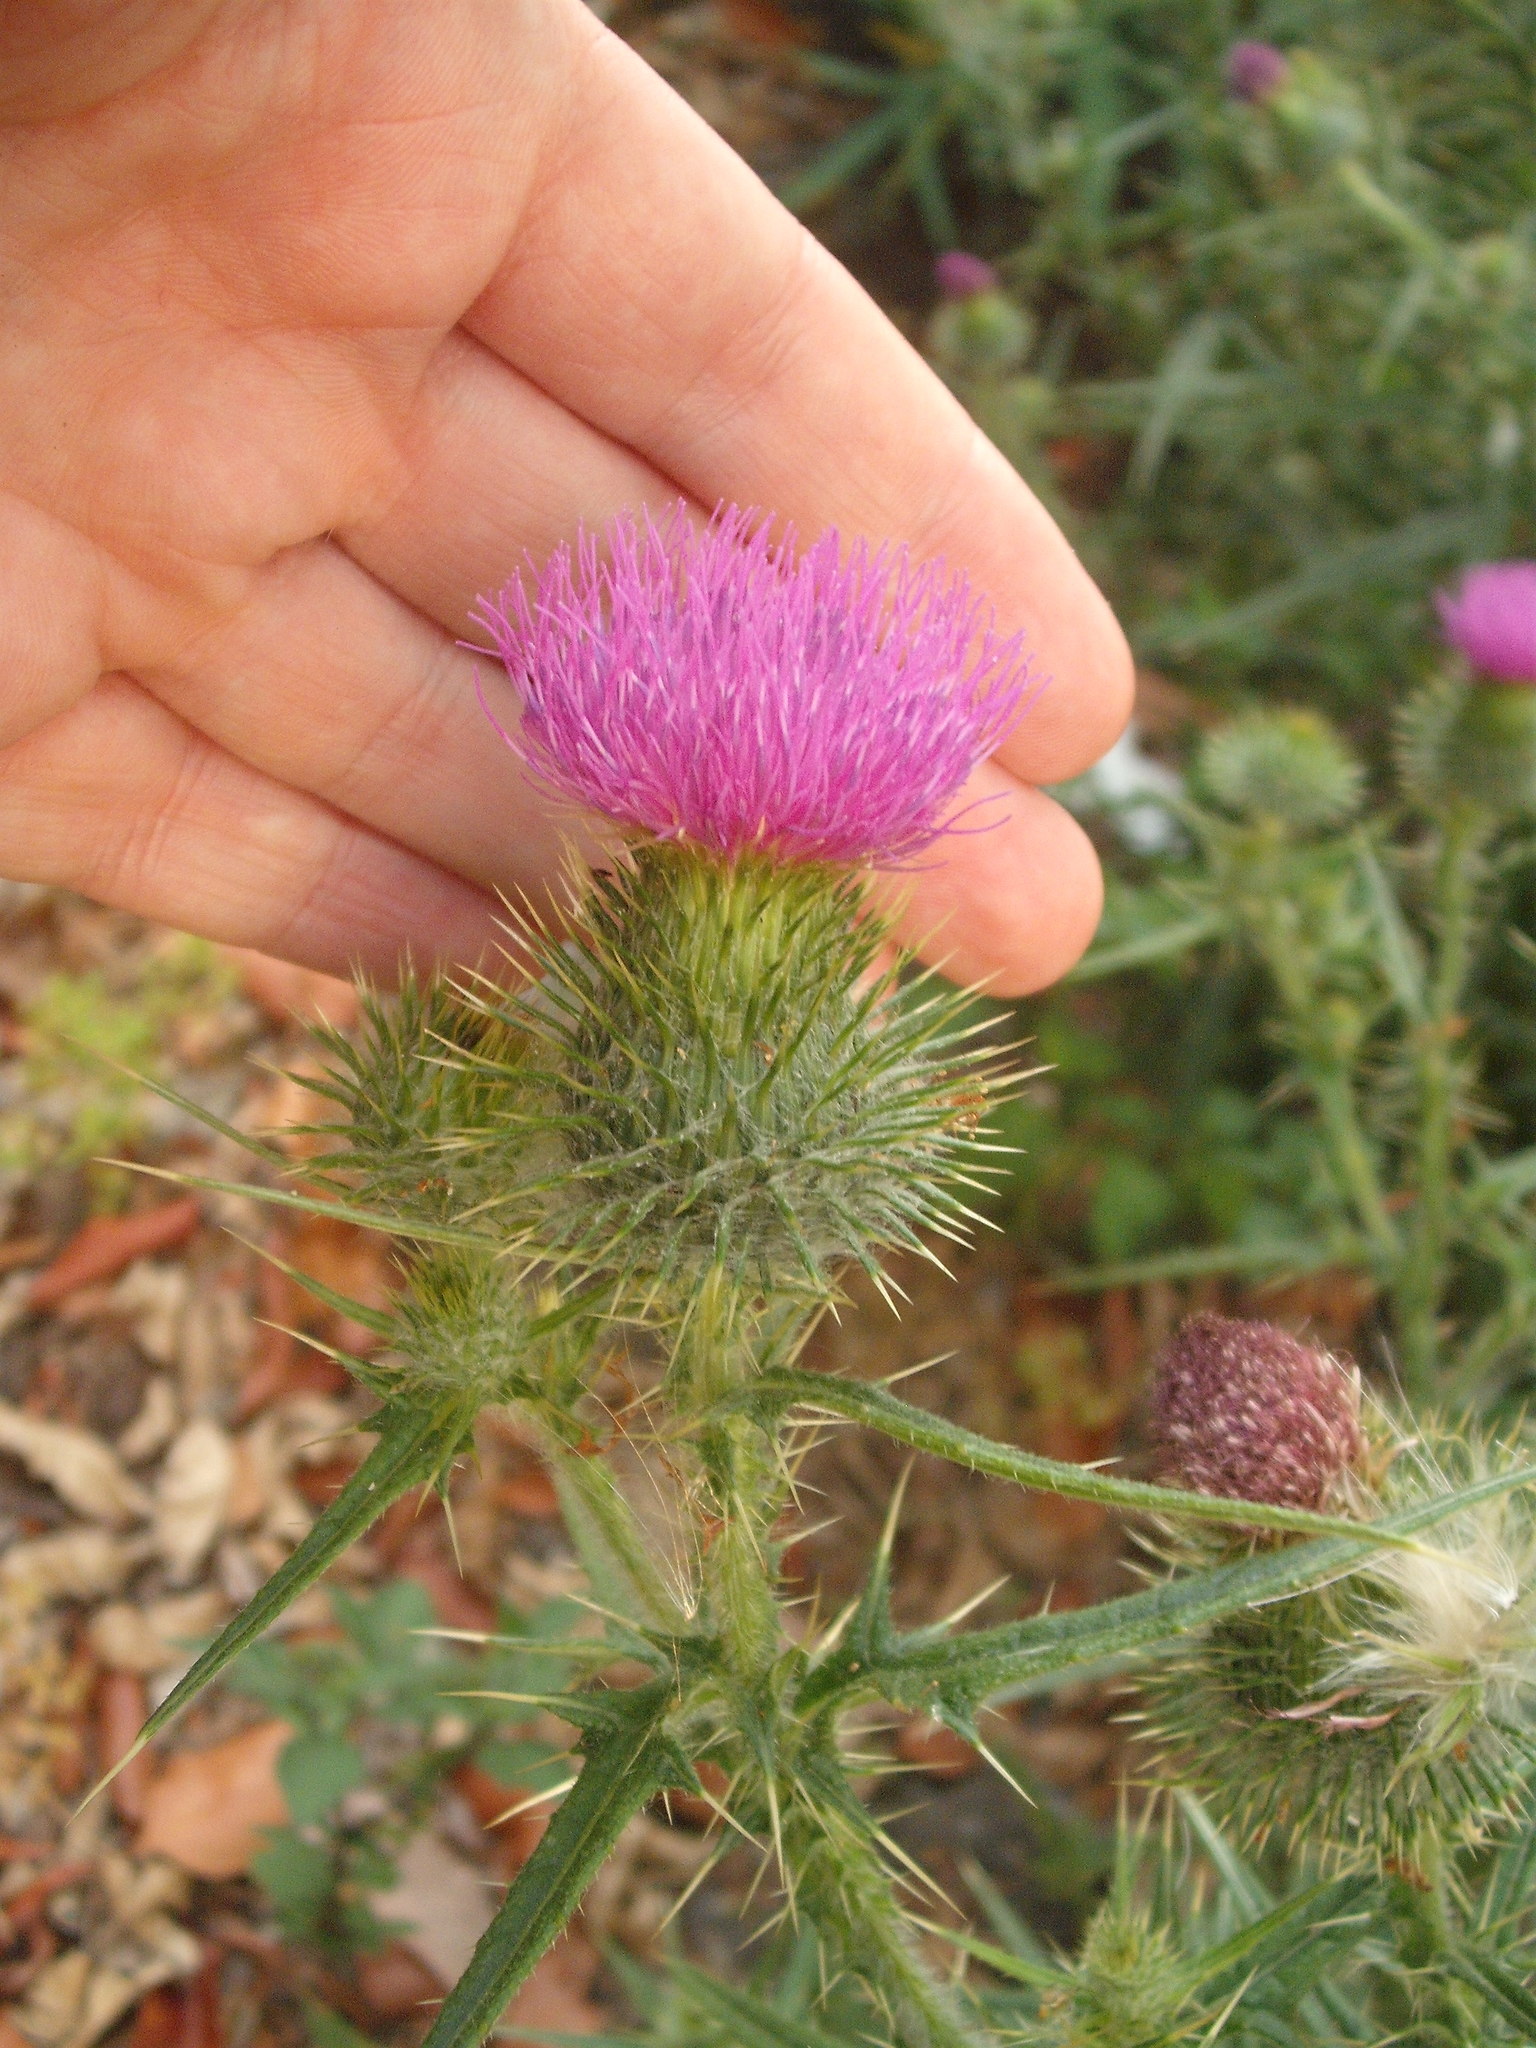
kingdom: Plantae
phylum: Tracheophyta
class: Magnoliopsida
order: Asterales
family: Asteraceae
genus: Cirsium
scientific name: Cirsium vulgare
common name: Bull thistle
